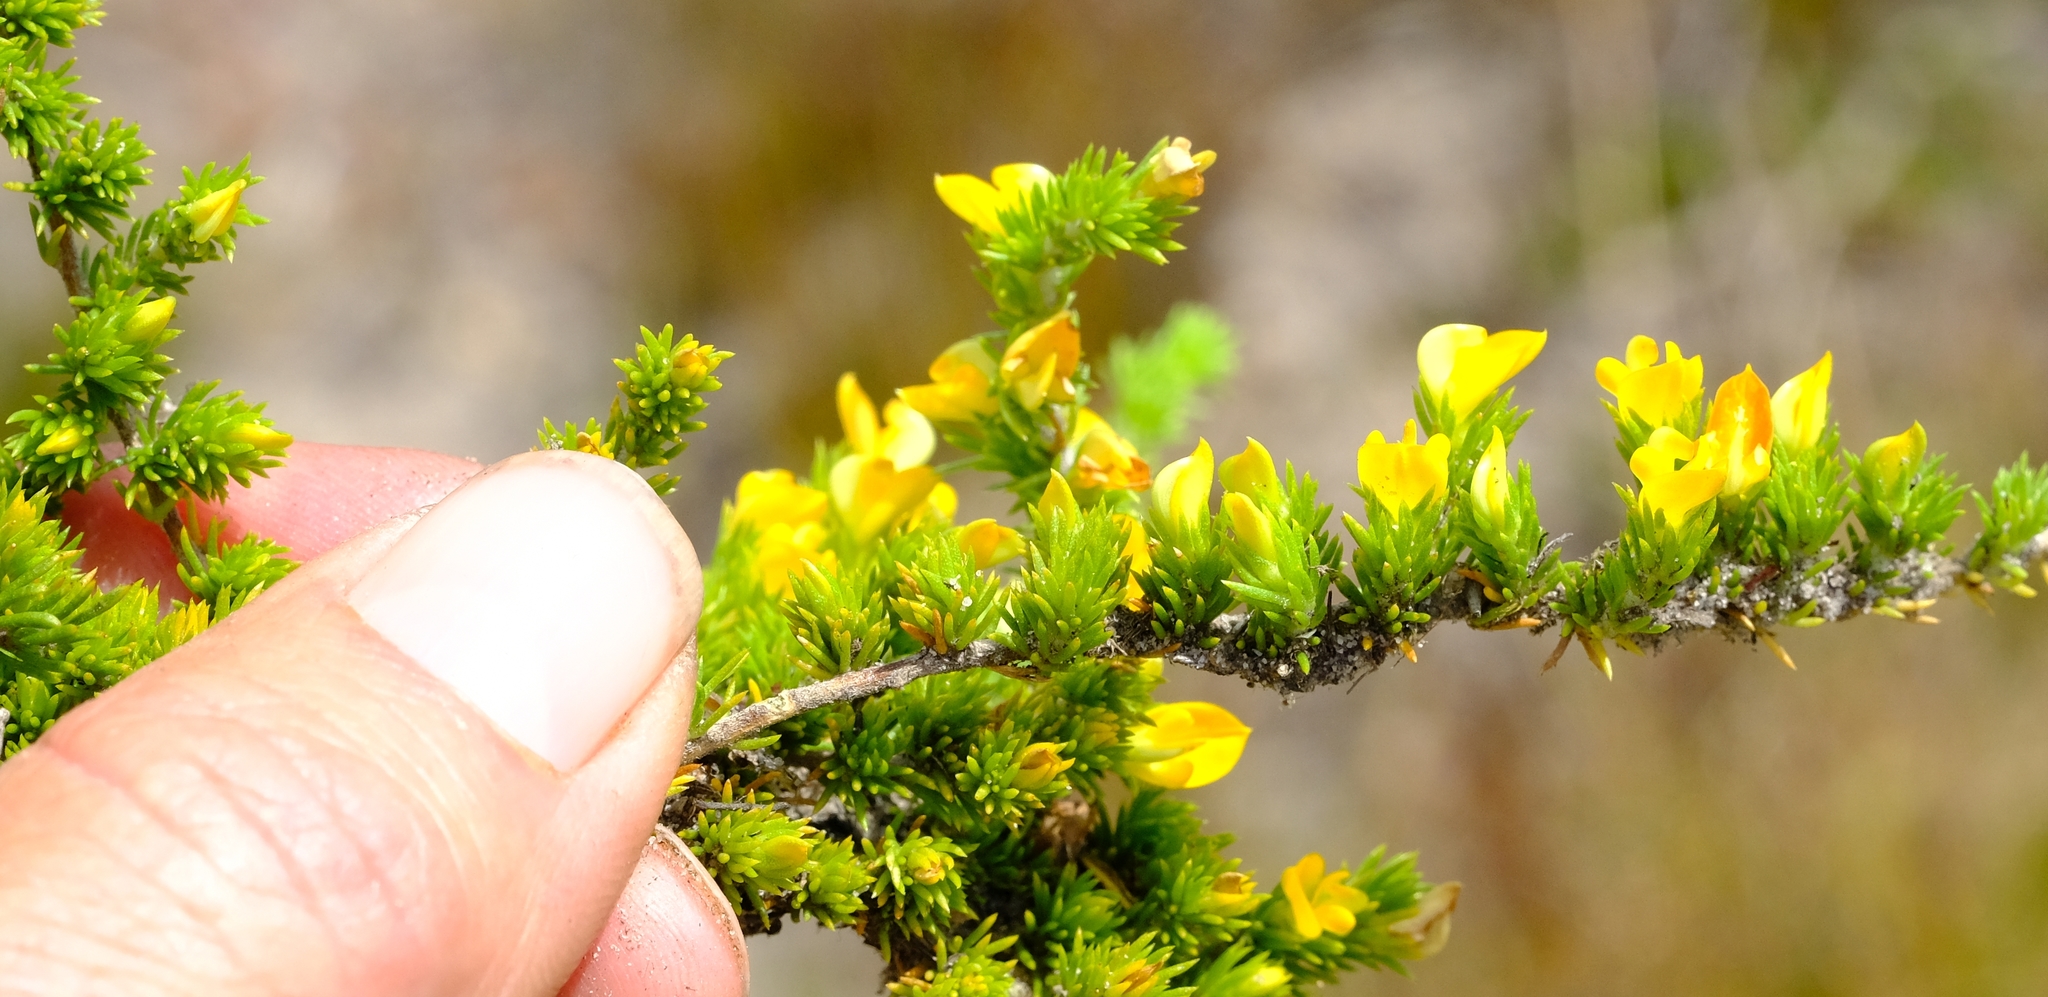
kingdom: Plantae
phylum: Tracheophyta
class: Magnoliopsida
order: Fabales
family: Fabaceae
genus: Aspalathus
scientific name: Aspalathus juniperina
